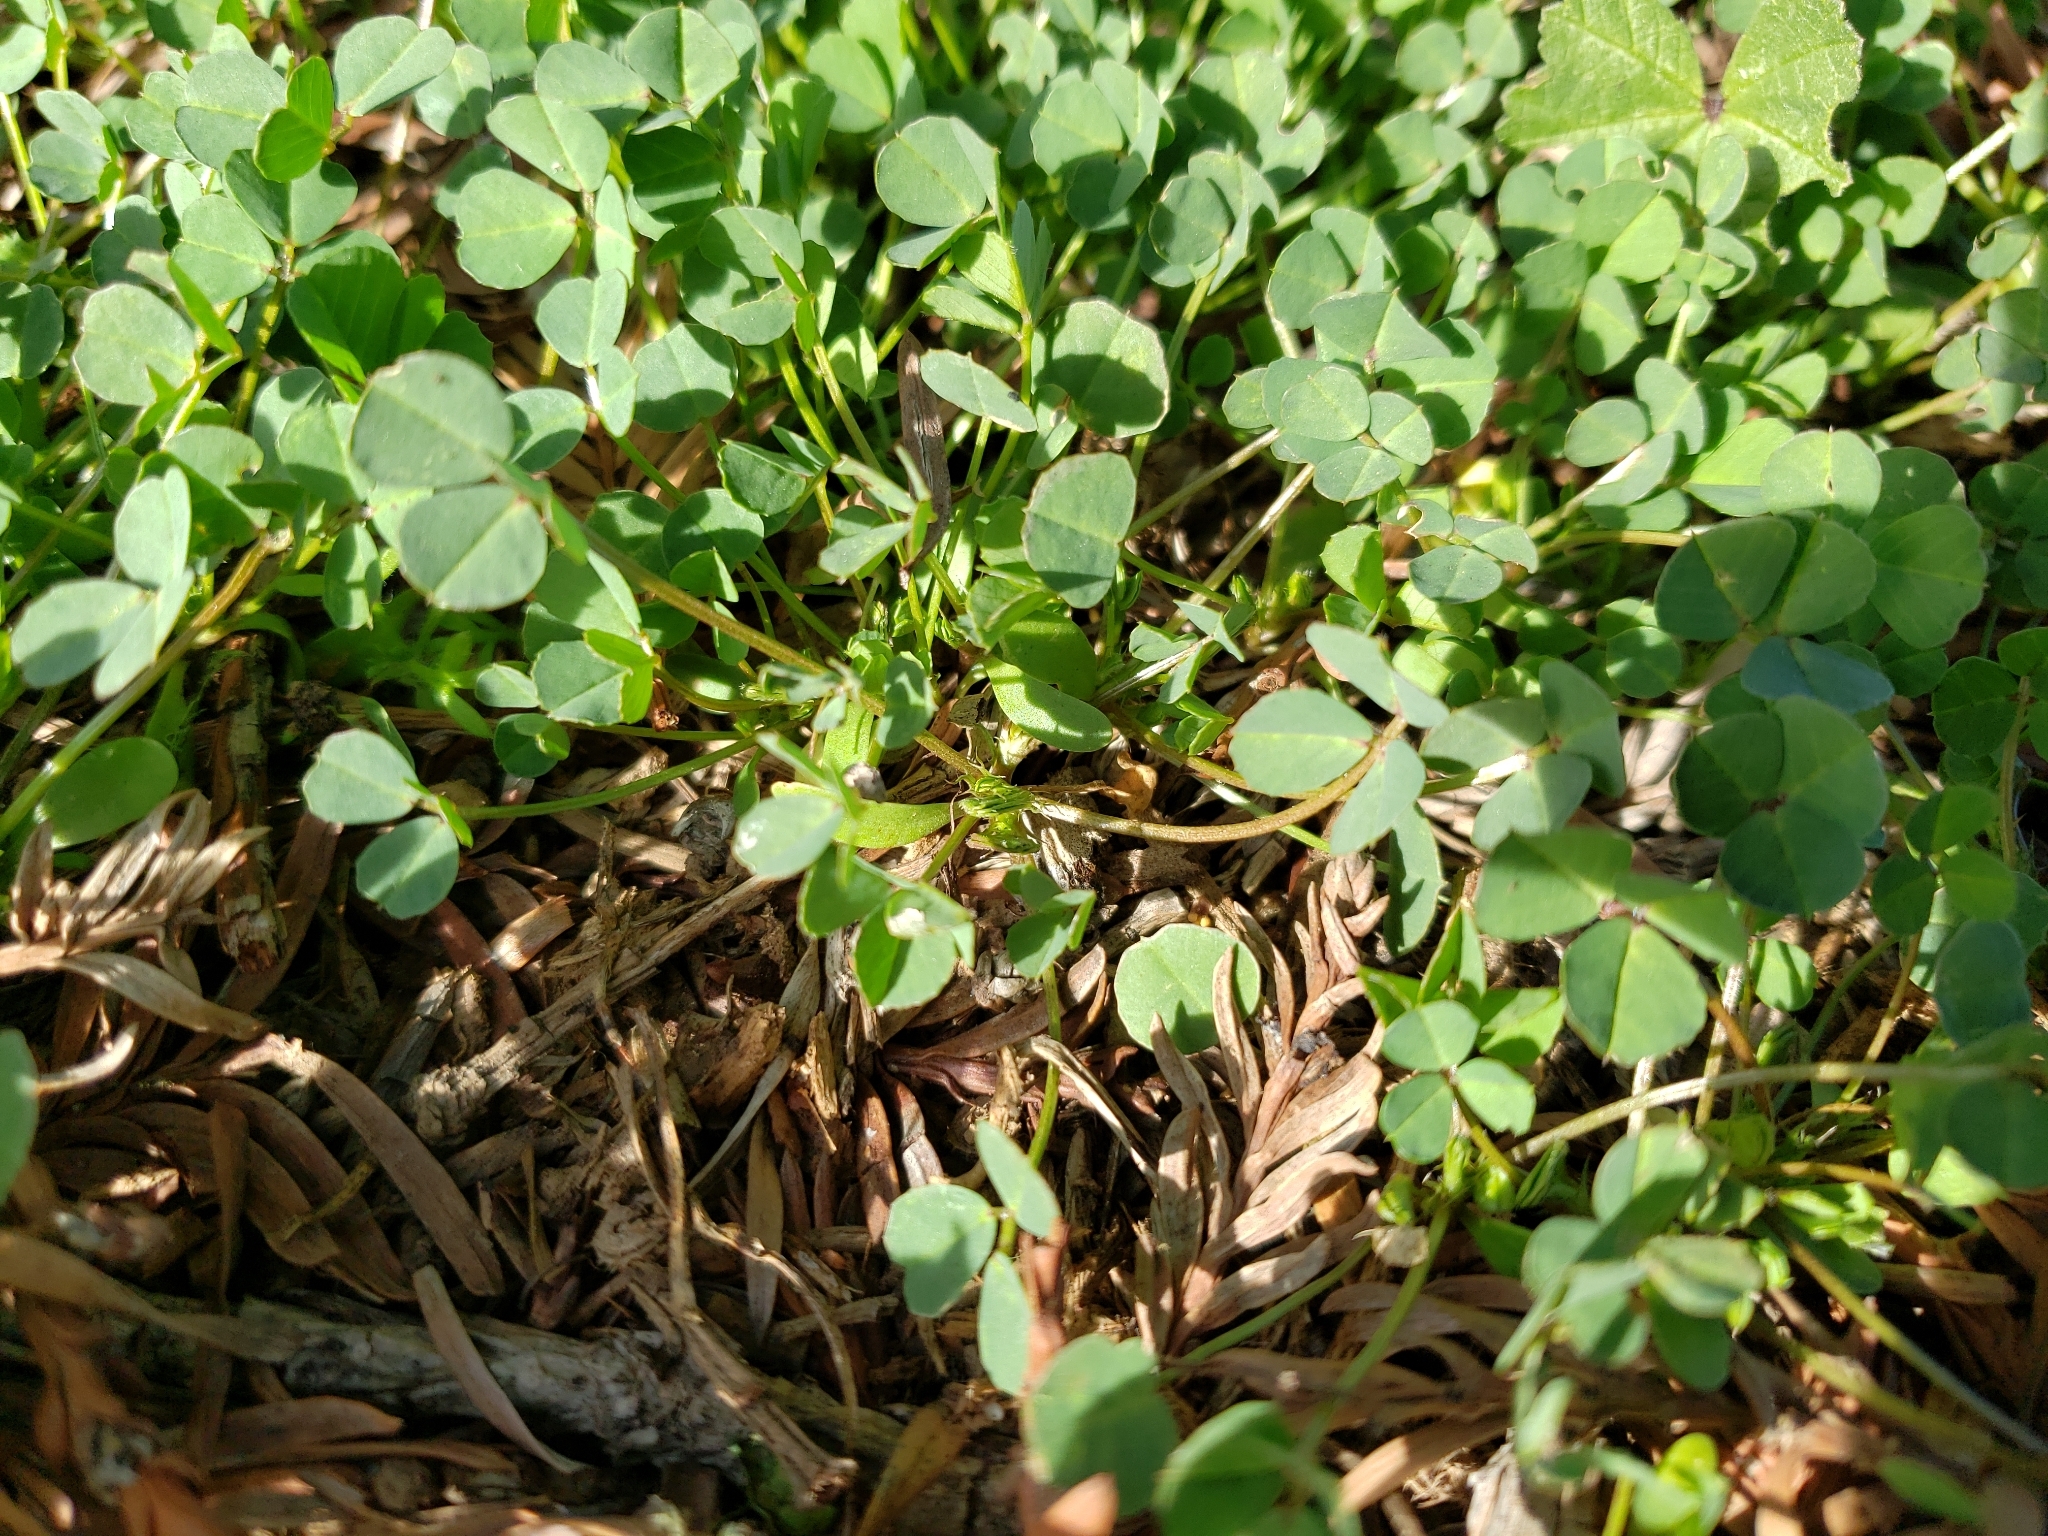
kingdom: Plantae
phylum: Tracheophyta
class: Magnoliopsida
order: Fabales
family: Fabaceae
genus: Medicago
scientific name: Medicago polymorpha
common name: Burclover
